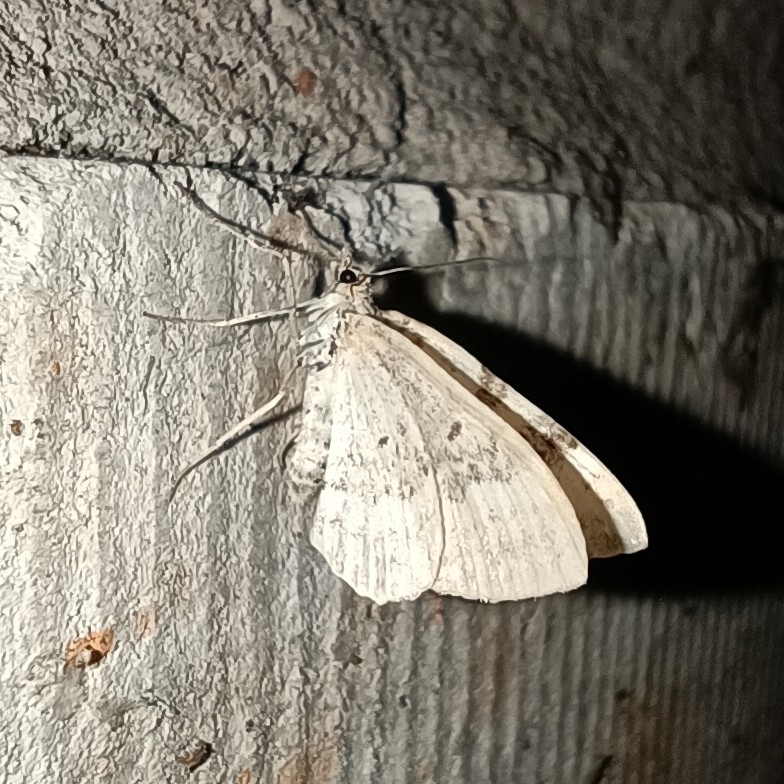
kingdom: Animalia
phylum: Arthropoda
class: Insecta
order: Lepidoptera
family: Geometridae
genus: Xanthorhoe
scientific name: Xanthorhoe montanata
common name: Silver-ground carpet
